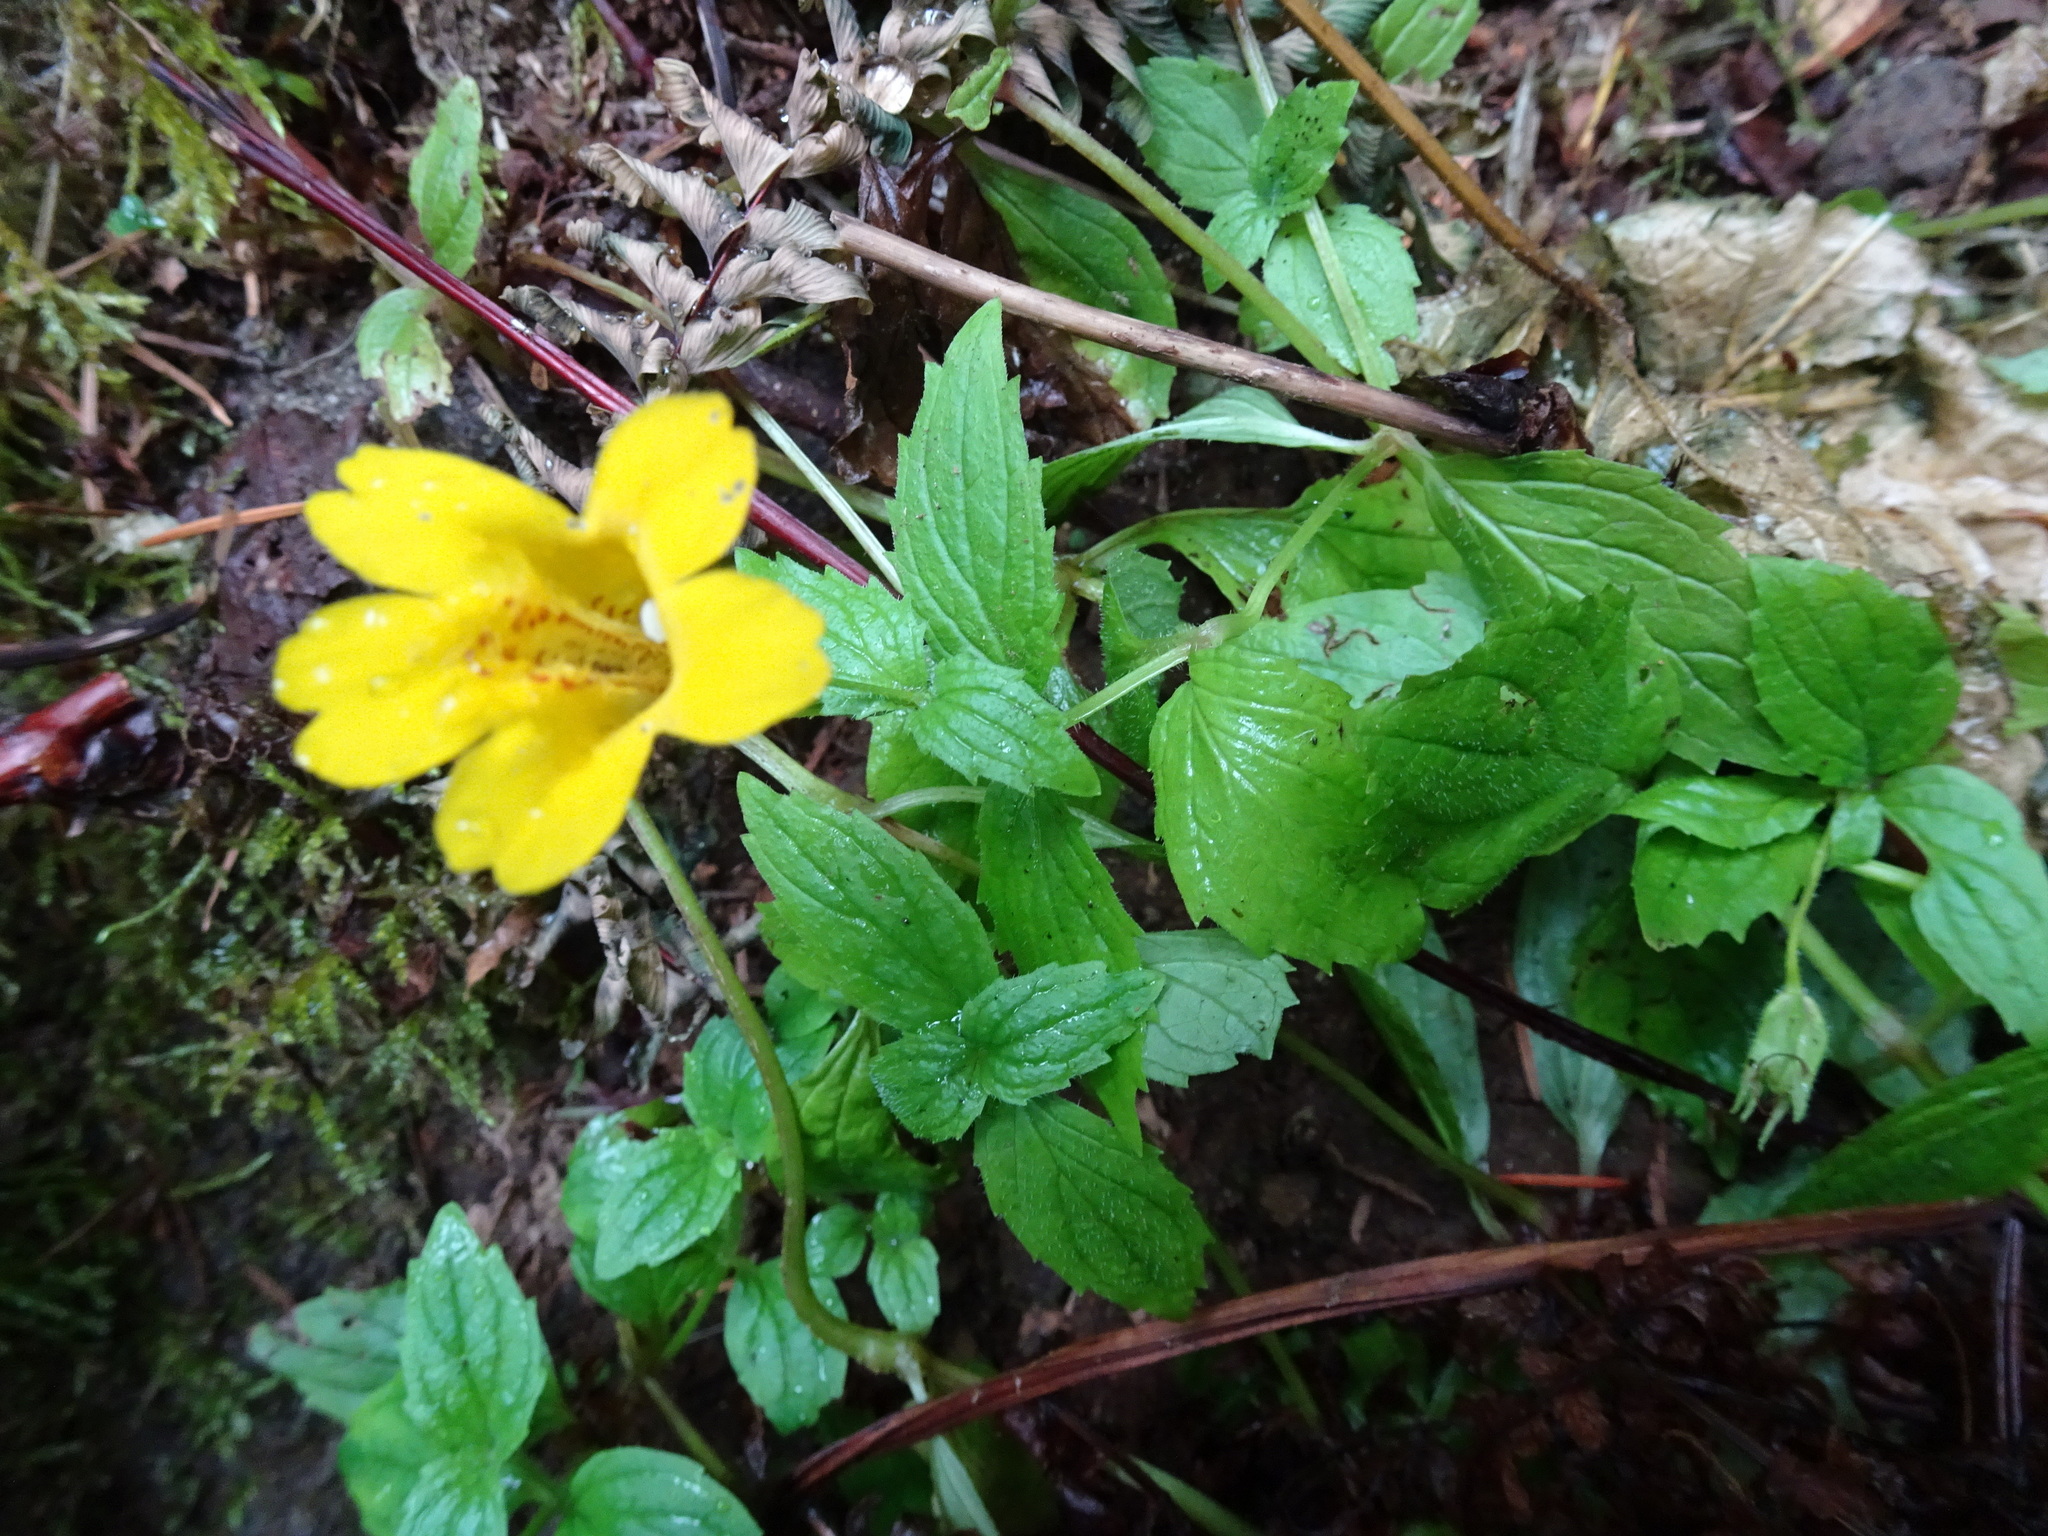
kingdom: Plantae
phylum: Tracheophyta
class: Magnoliopsida
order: Lamiales
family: Phrymaceae
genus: Erythranthe
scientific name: Erythranthe dentata
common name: Coastal monkeyflower
